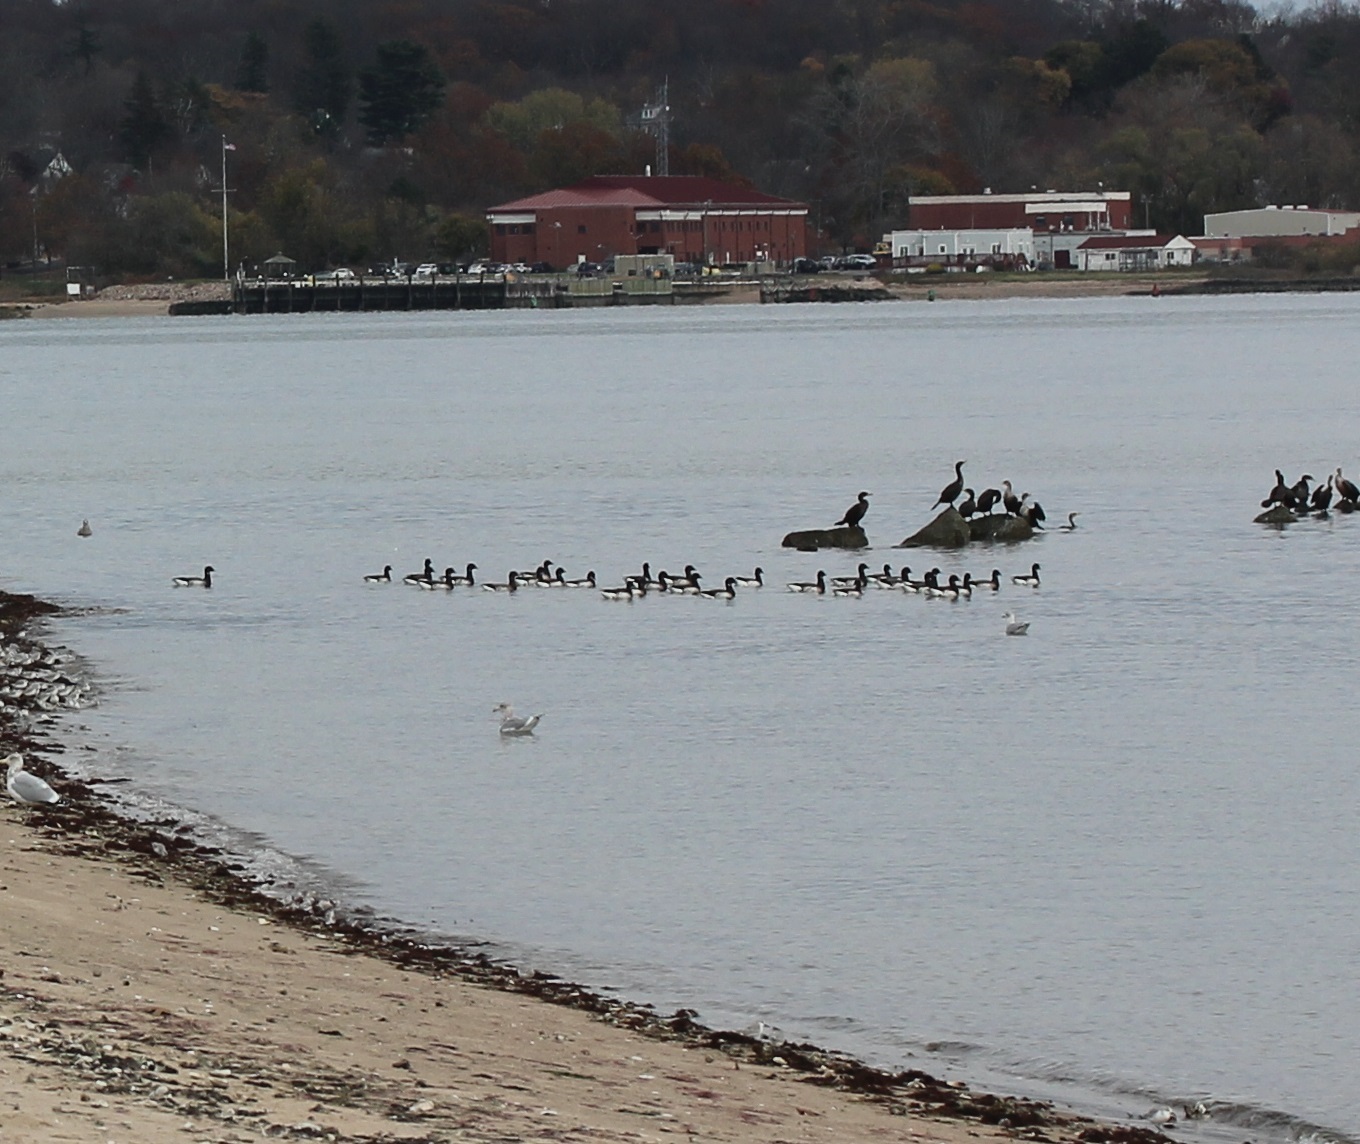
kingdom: Animalia
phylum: Chordata
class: Aves
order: Anseriformes
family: Anatidae
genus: Branta
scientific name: Branta bernicla
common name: Brant goose
